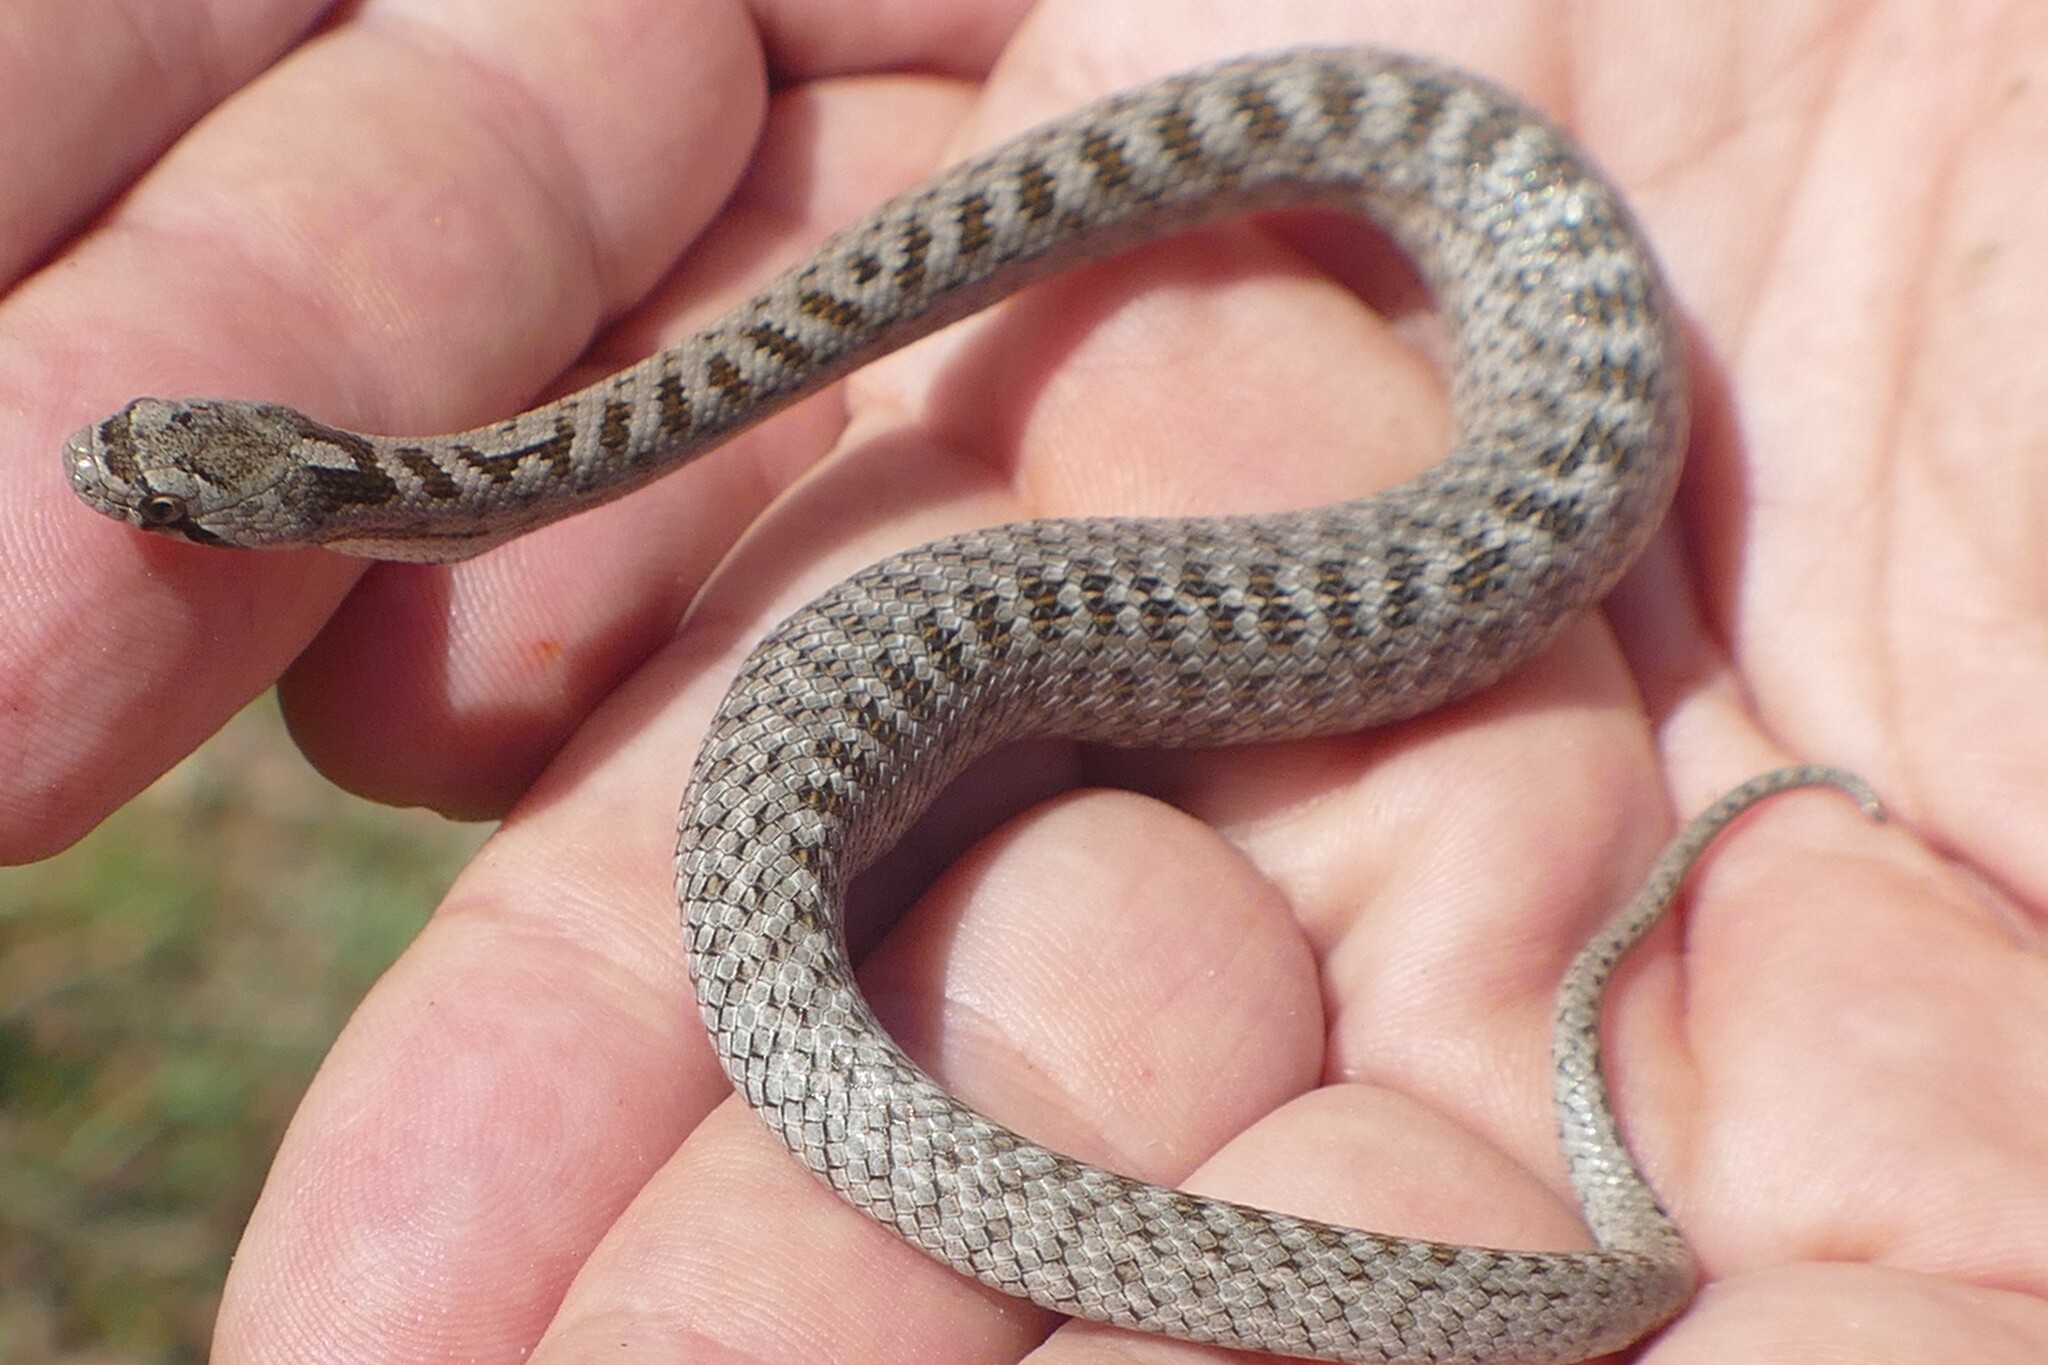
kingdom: Animalia
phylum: Chordata
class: Squamata
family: Colubridae
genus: Coronella
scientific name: Coronella girondica
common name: Southern smooth snake
